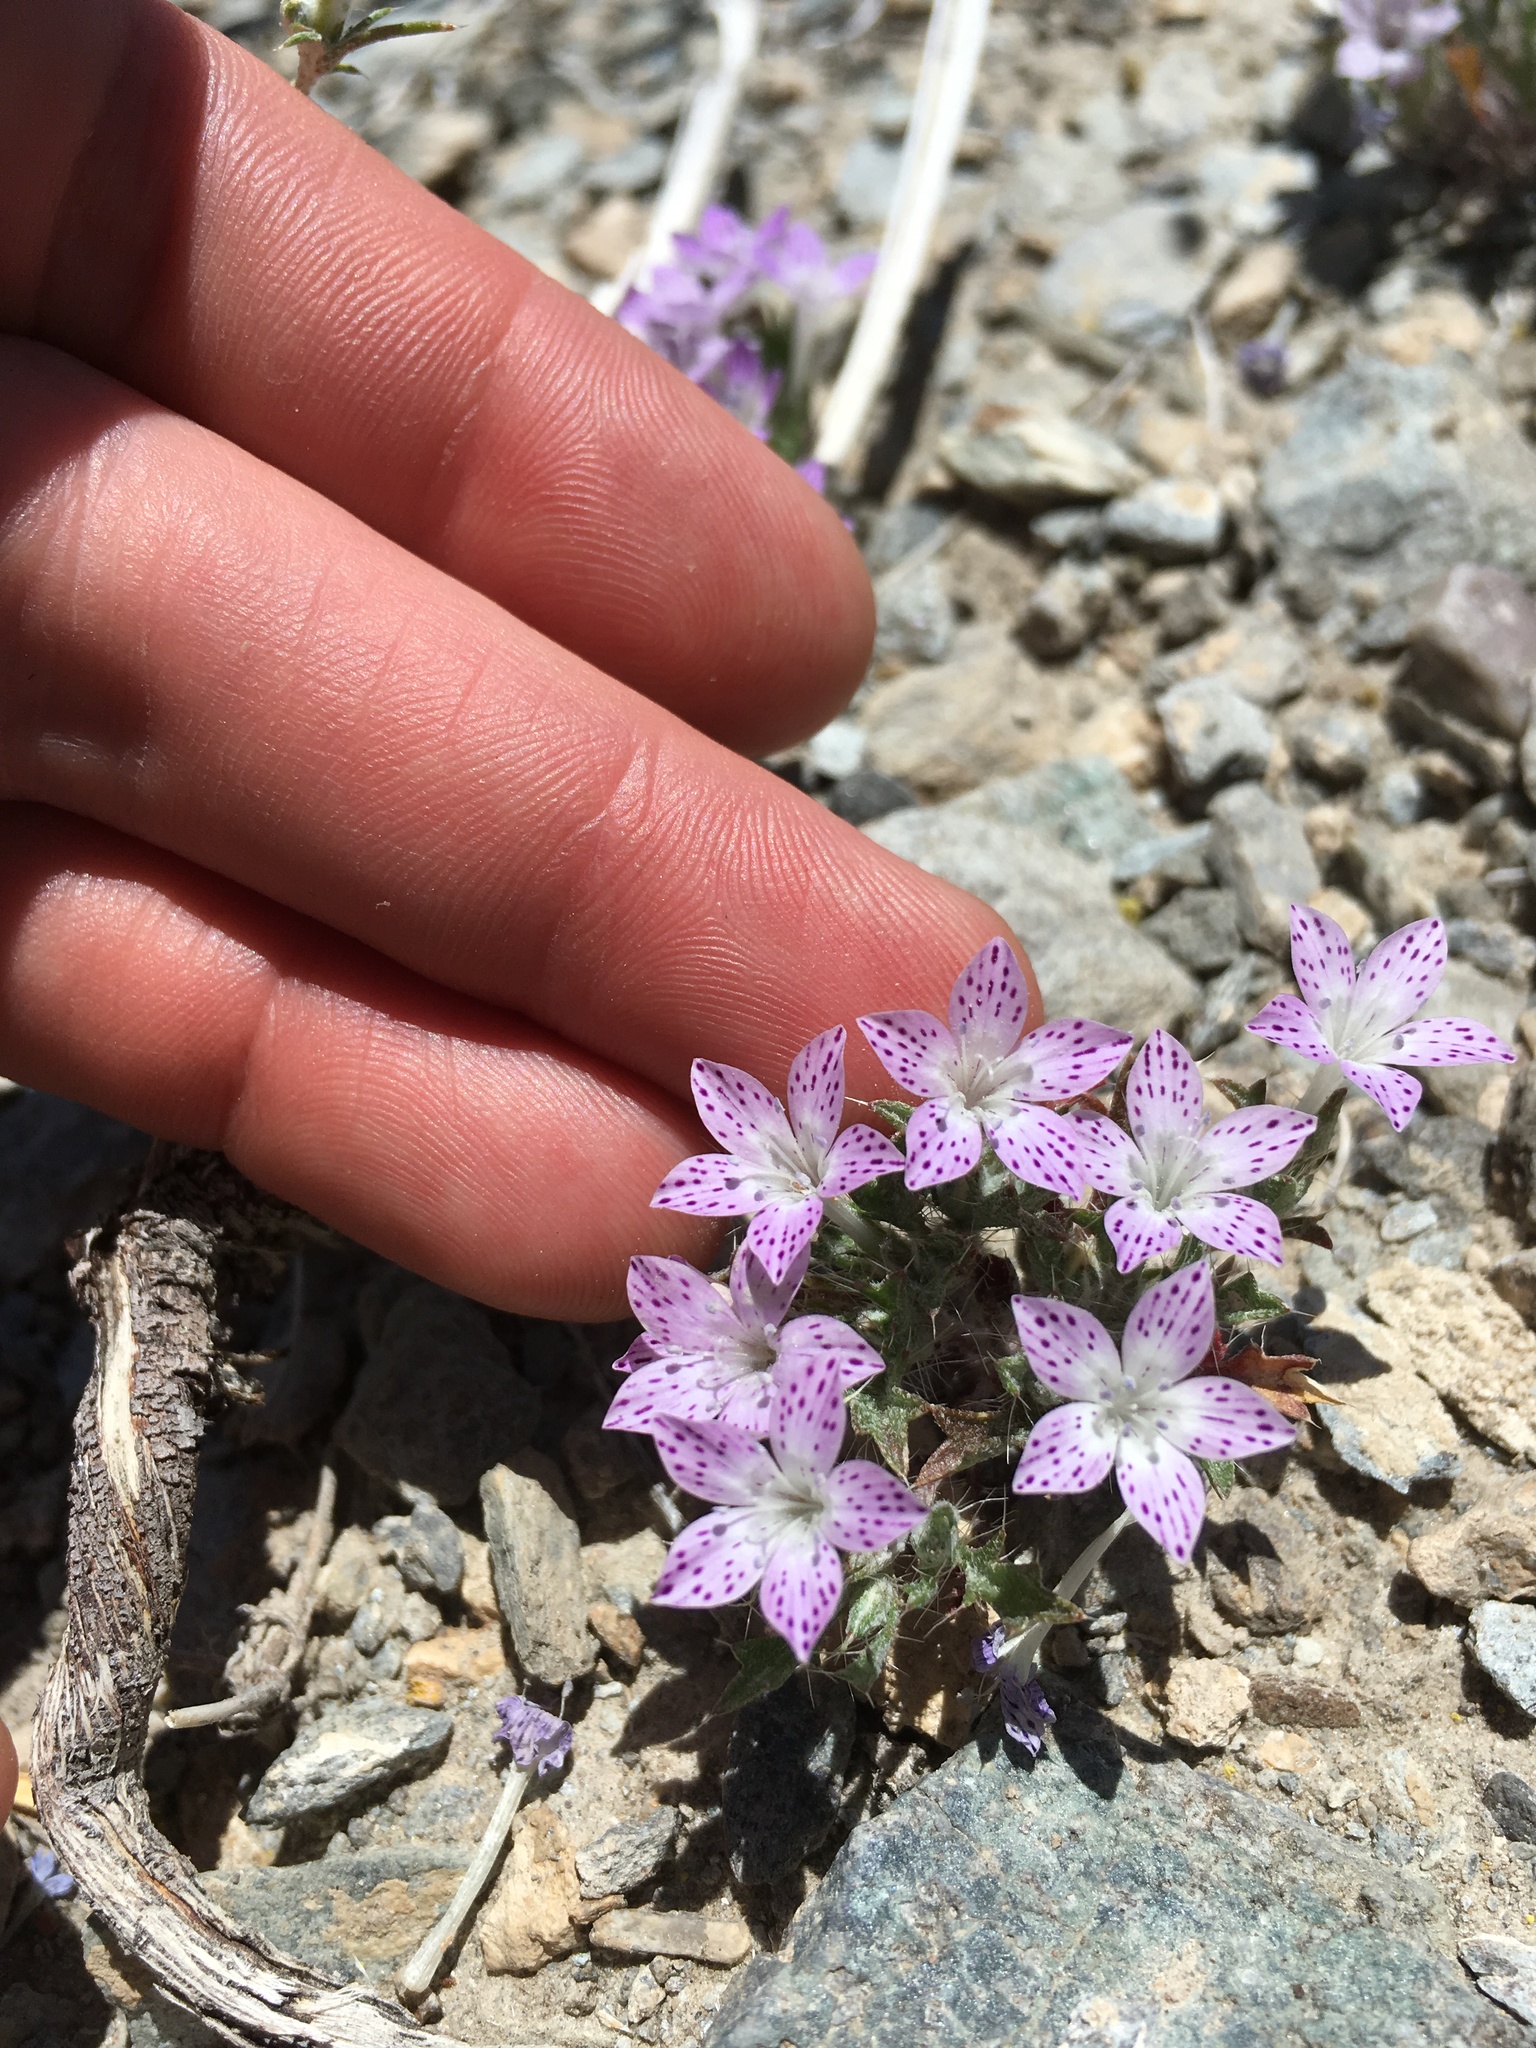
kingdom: Plantae
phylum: Tracheophyta
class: Magnoliopsida
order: Ericales
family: Polemoniaceae
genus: Langloisia
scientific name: Langloisia setosissima
